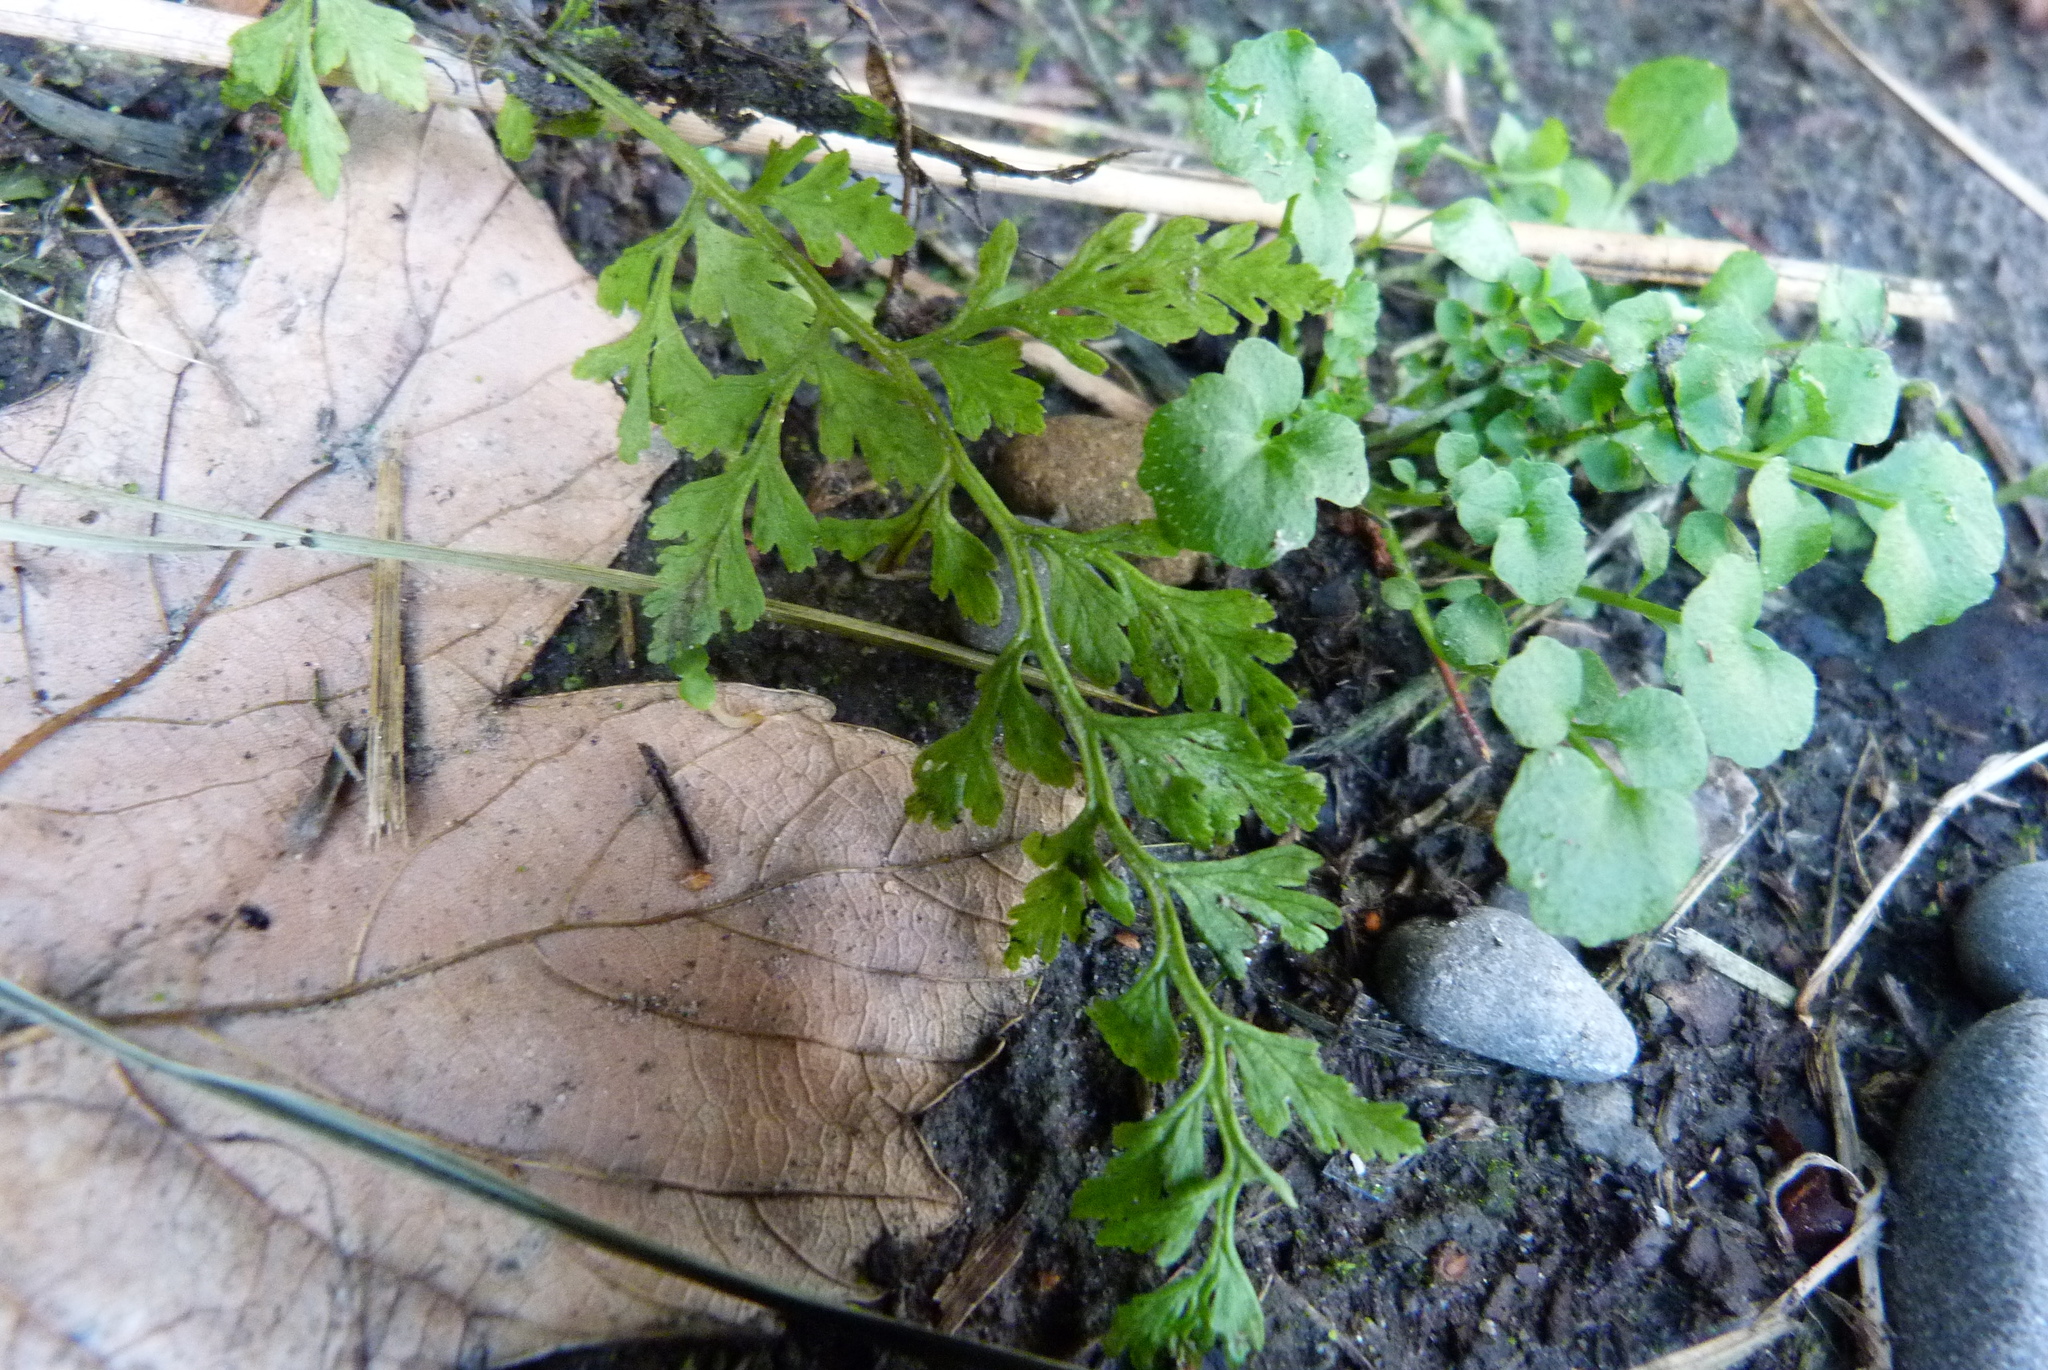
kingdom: Plantae
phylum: Tracheophyta
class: Polypodiopsida
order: Polypodiales
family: Cystopteridaceae
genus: Cystopteris
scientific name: Cystopteris fragilis
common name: Brittle bladder fern
